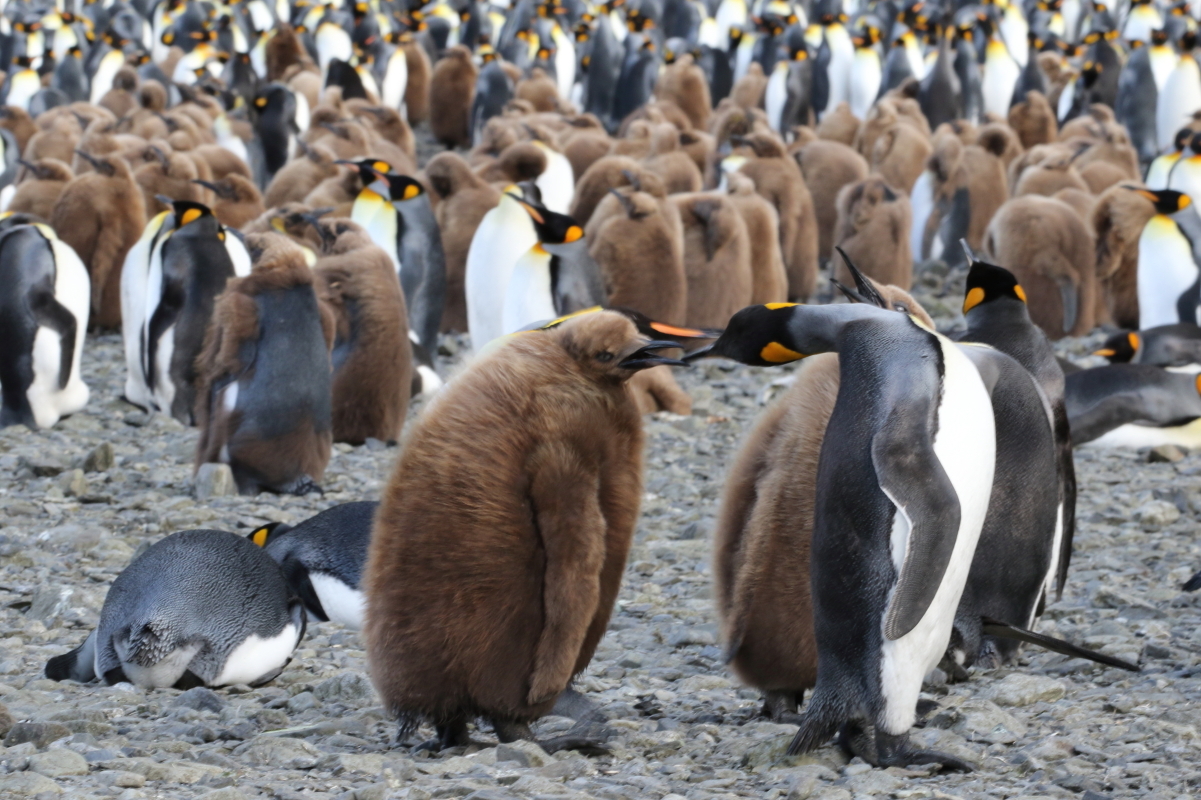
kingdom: Animalia
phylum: Chordata
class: Aves
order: Sphenisciformes
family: Spheniscidae
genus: Aptenodytes
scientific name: Aptenodytes patagonicus
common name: King penguin
